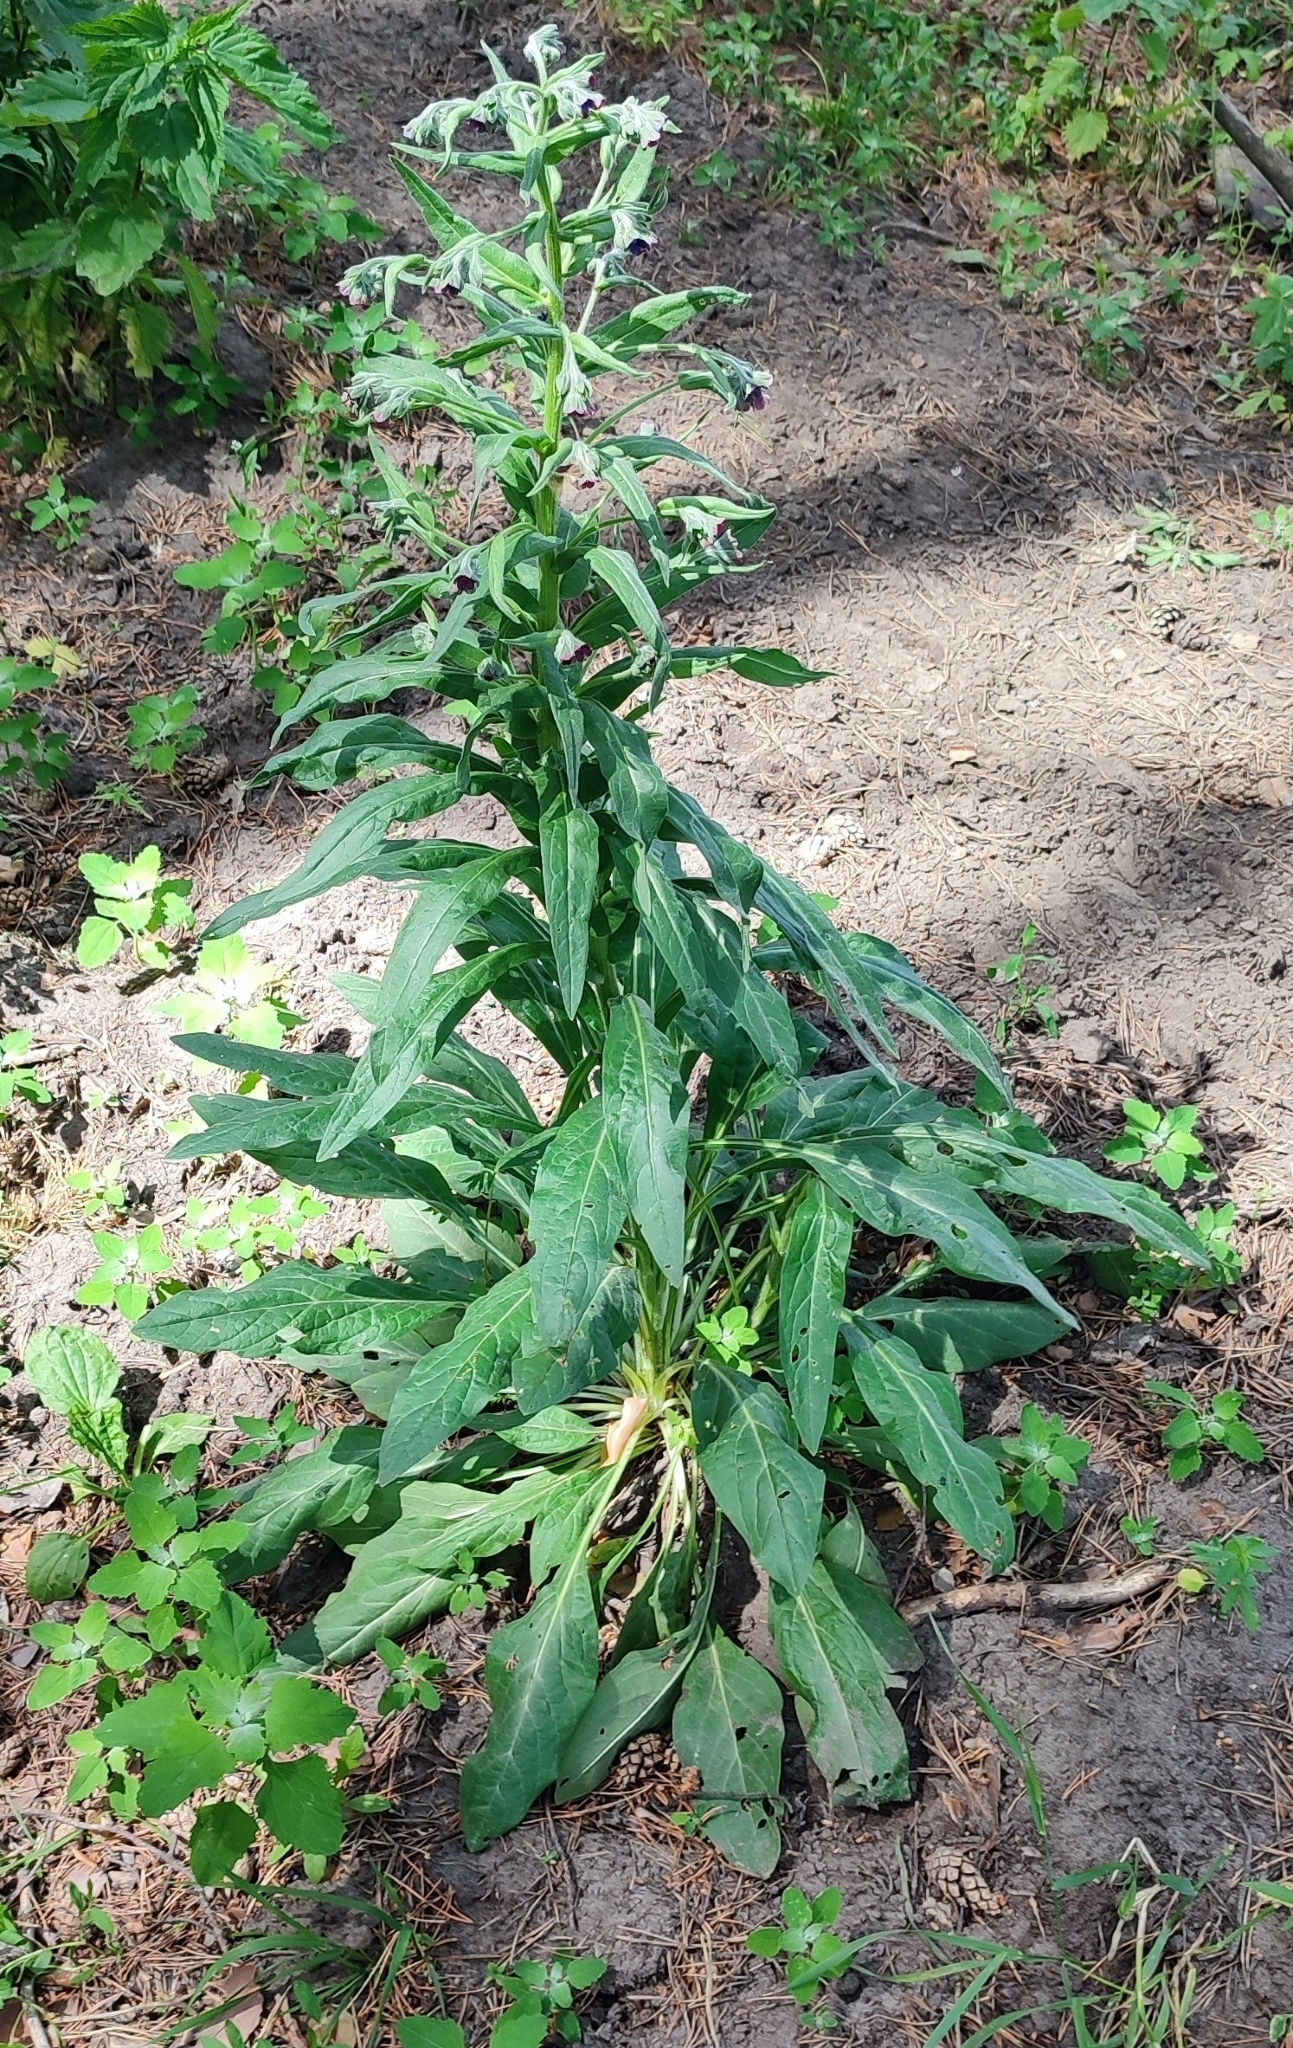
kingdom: Plantae
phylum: Tracheophyta
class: Magnoliopsida
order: Boraginales
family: Boraginaceae
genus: Cynoglossum
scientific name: Cynoglossum officinale
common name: Hound's-tongue
